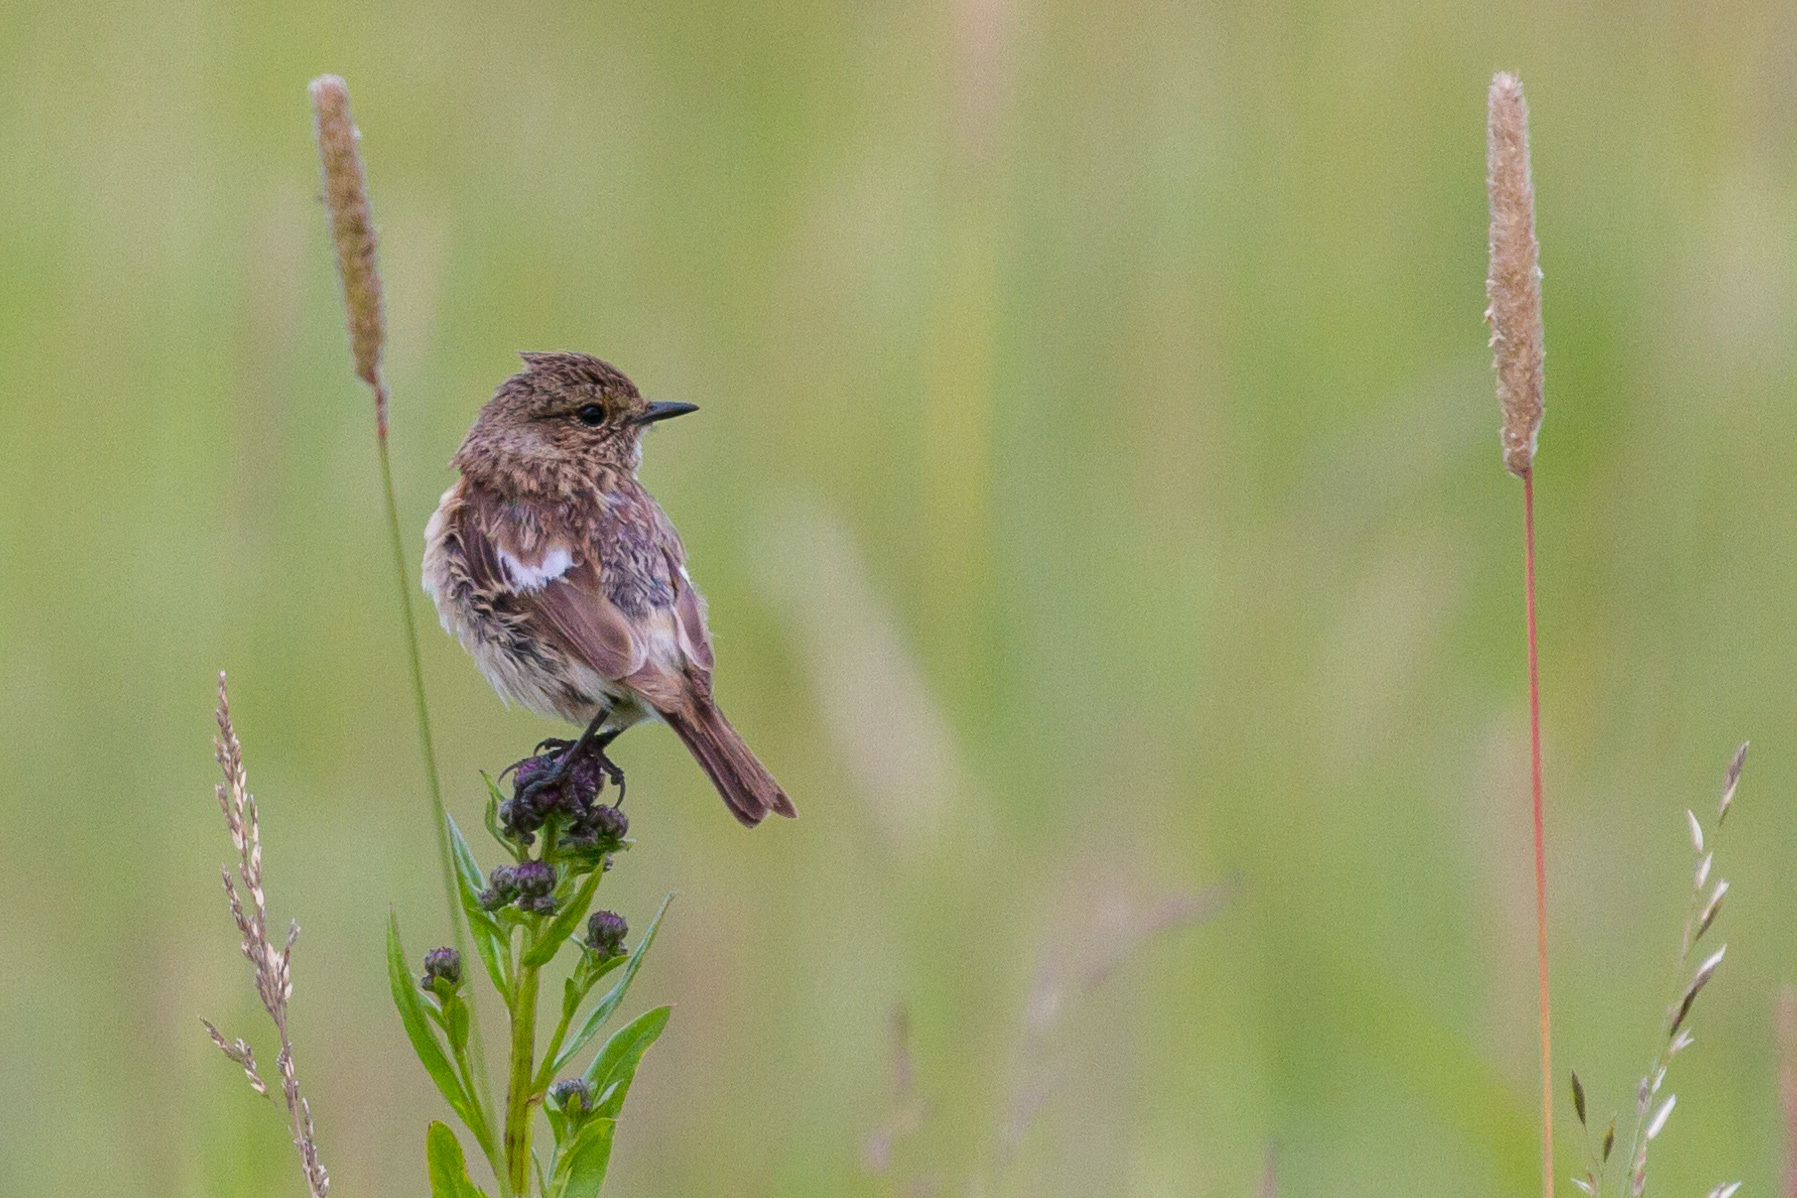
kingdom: Animalia
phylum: Chordata
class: Aves
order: Passeriformes
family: Muscicapidae
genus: Saxicola
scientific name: Saxicola maurus
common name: Siberian stonechat
